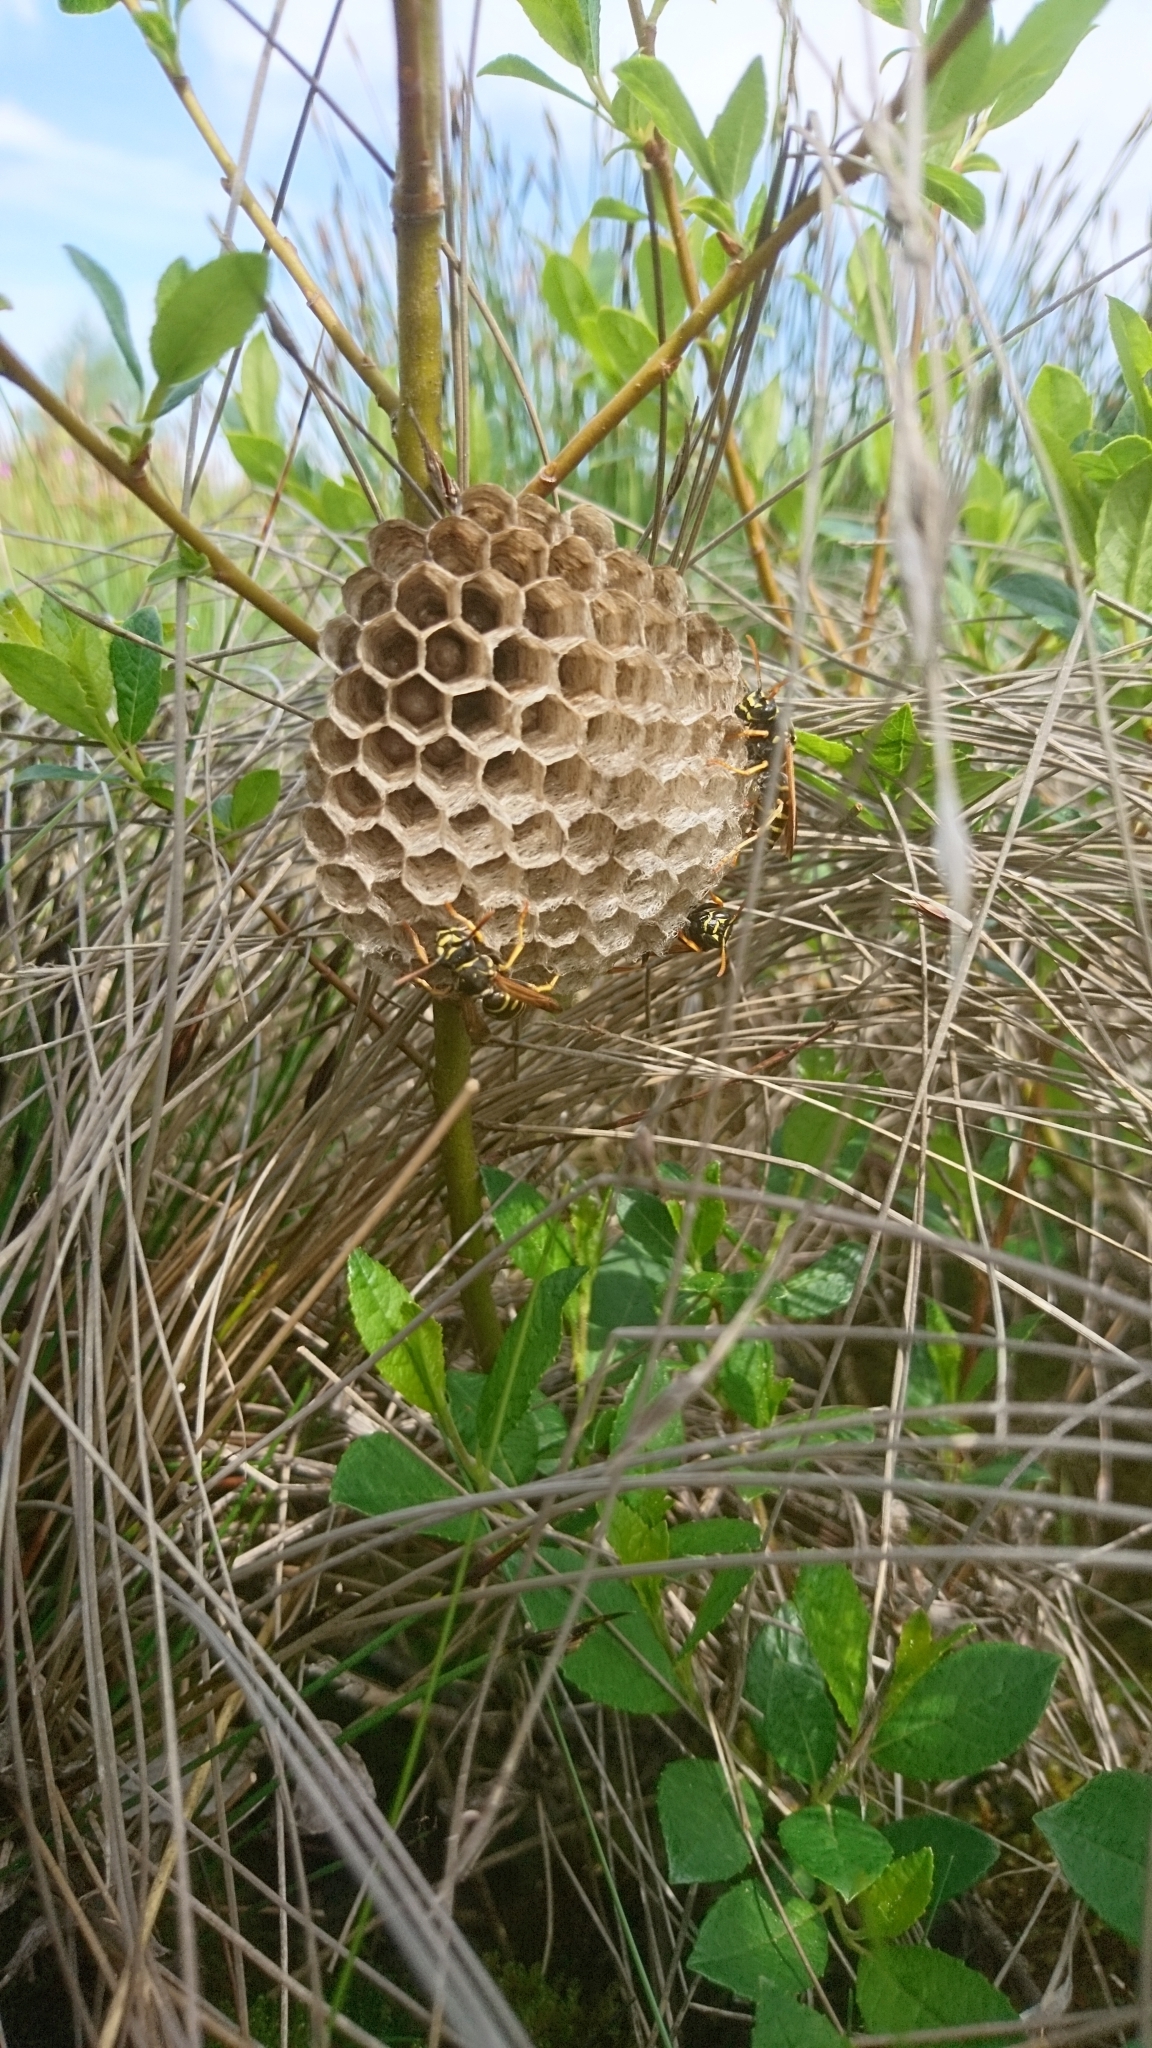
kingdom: Animalia
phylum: Arthropoda
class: Insecta
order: Hymenoptera
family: Eumenidae
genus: Polistes
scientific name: Polistes nimpha
